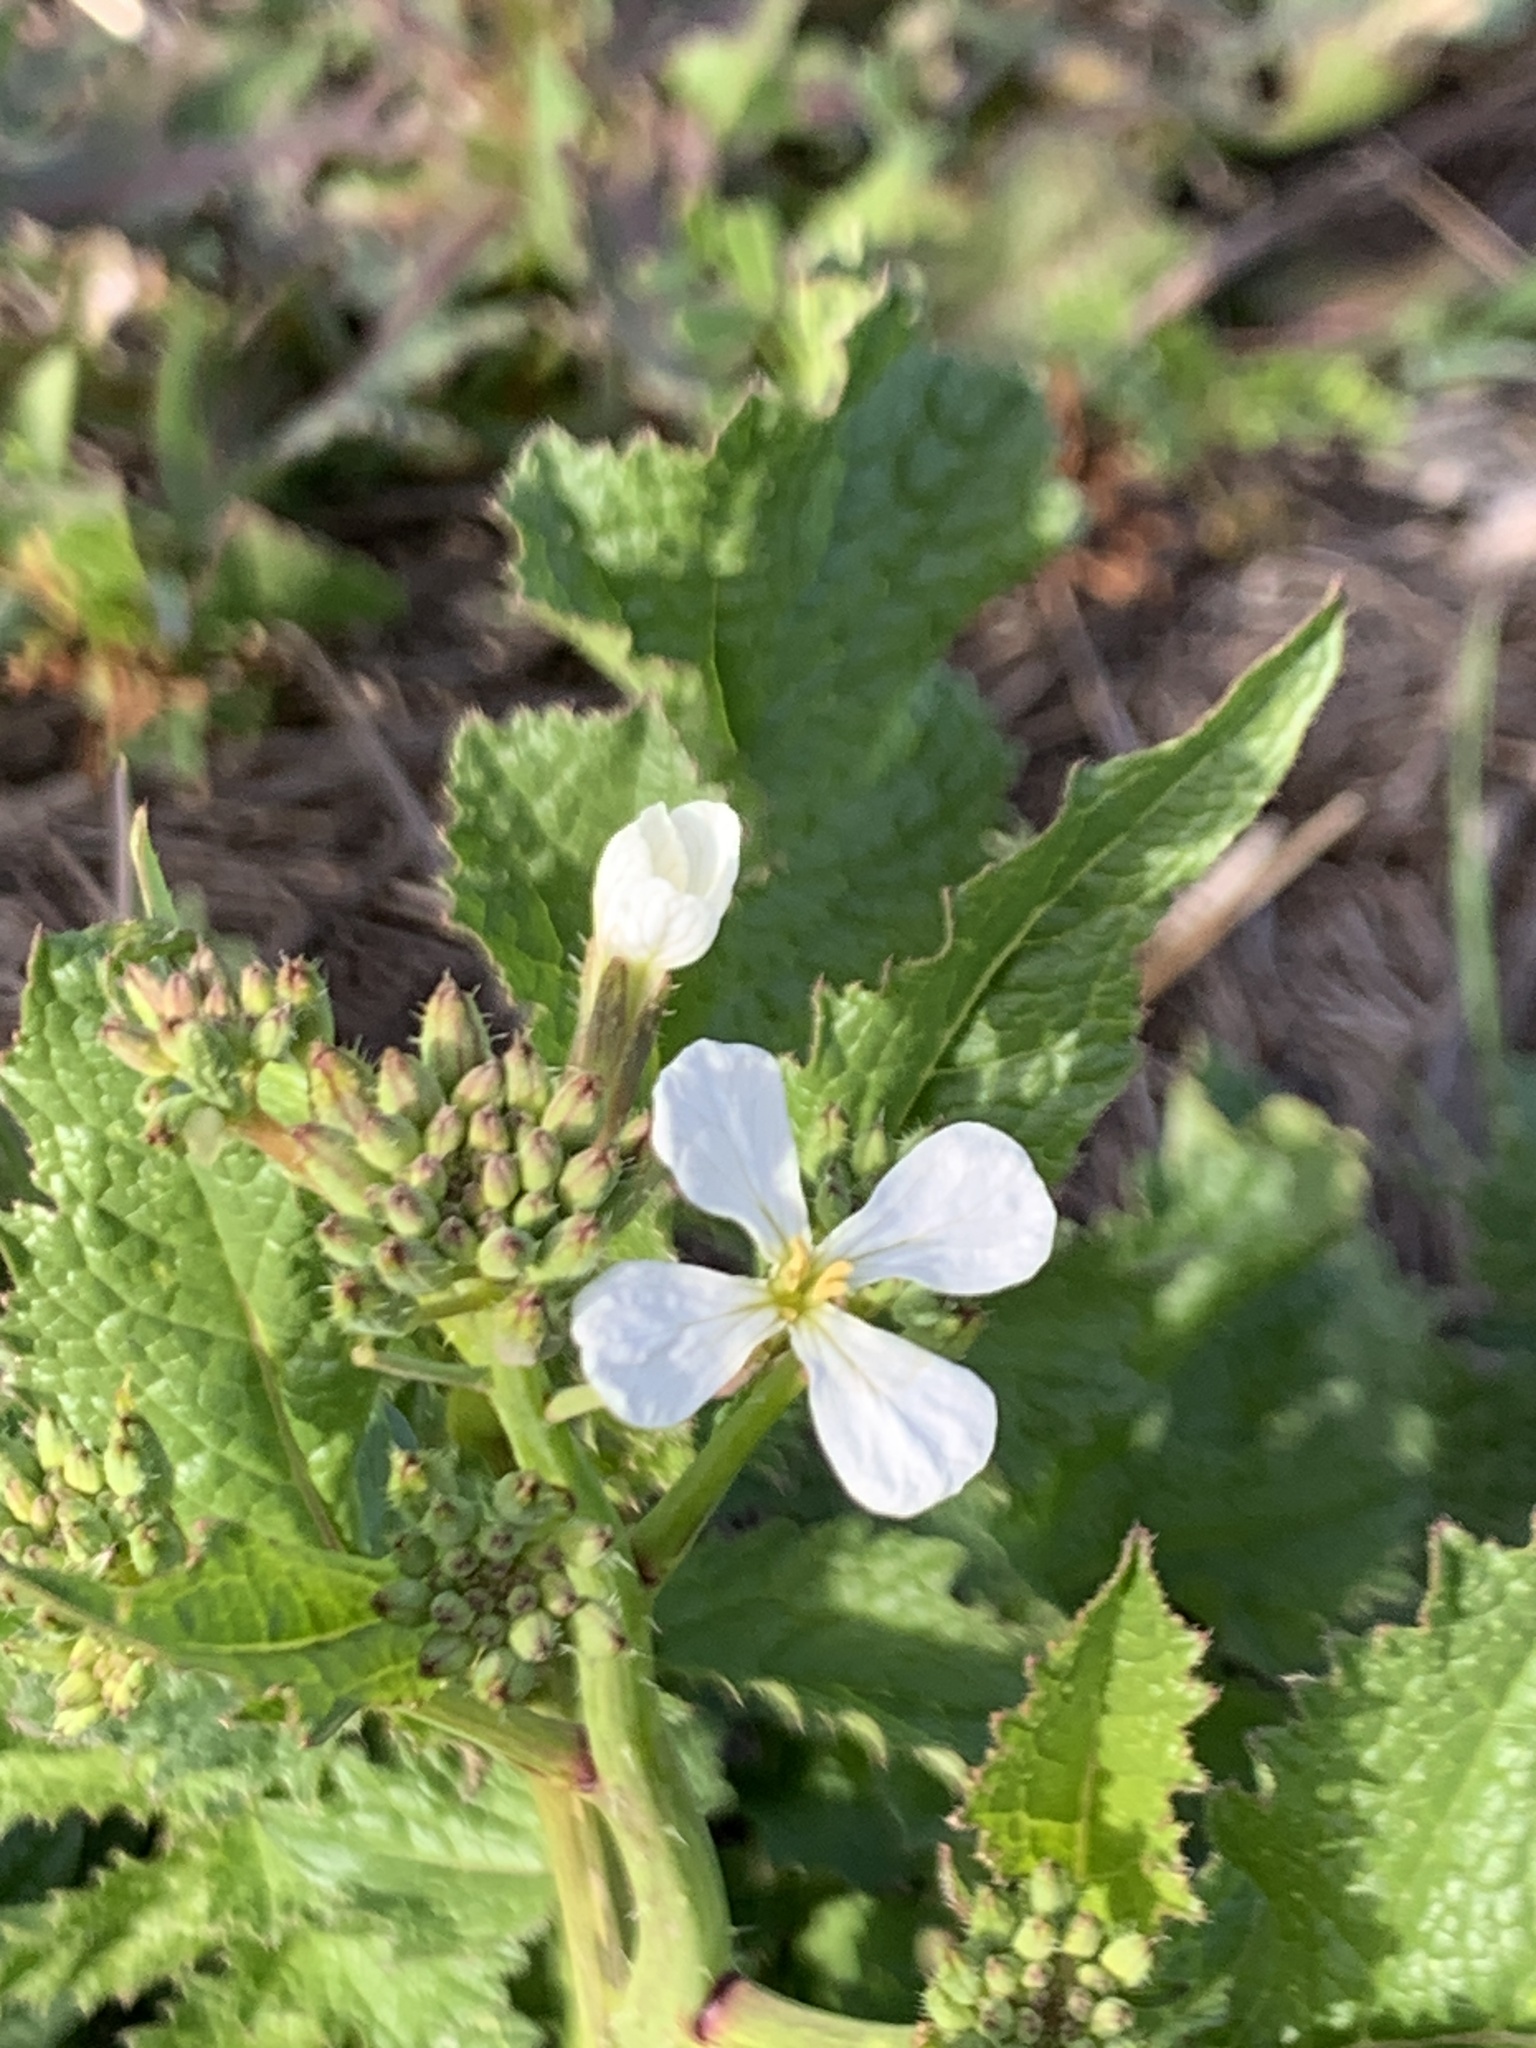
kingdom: Plantae
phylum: Tracheophyta
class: Magnoliopsida
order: Brassicales
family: Brassicaceae
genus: Raphanus
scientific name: Raphanus raphanistrum
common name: Wild radish
